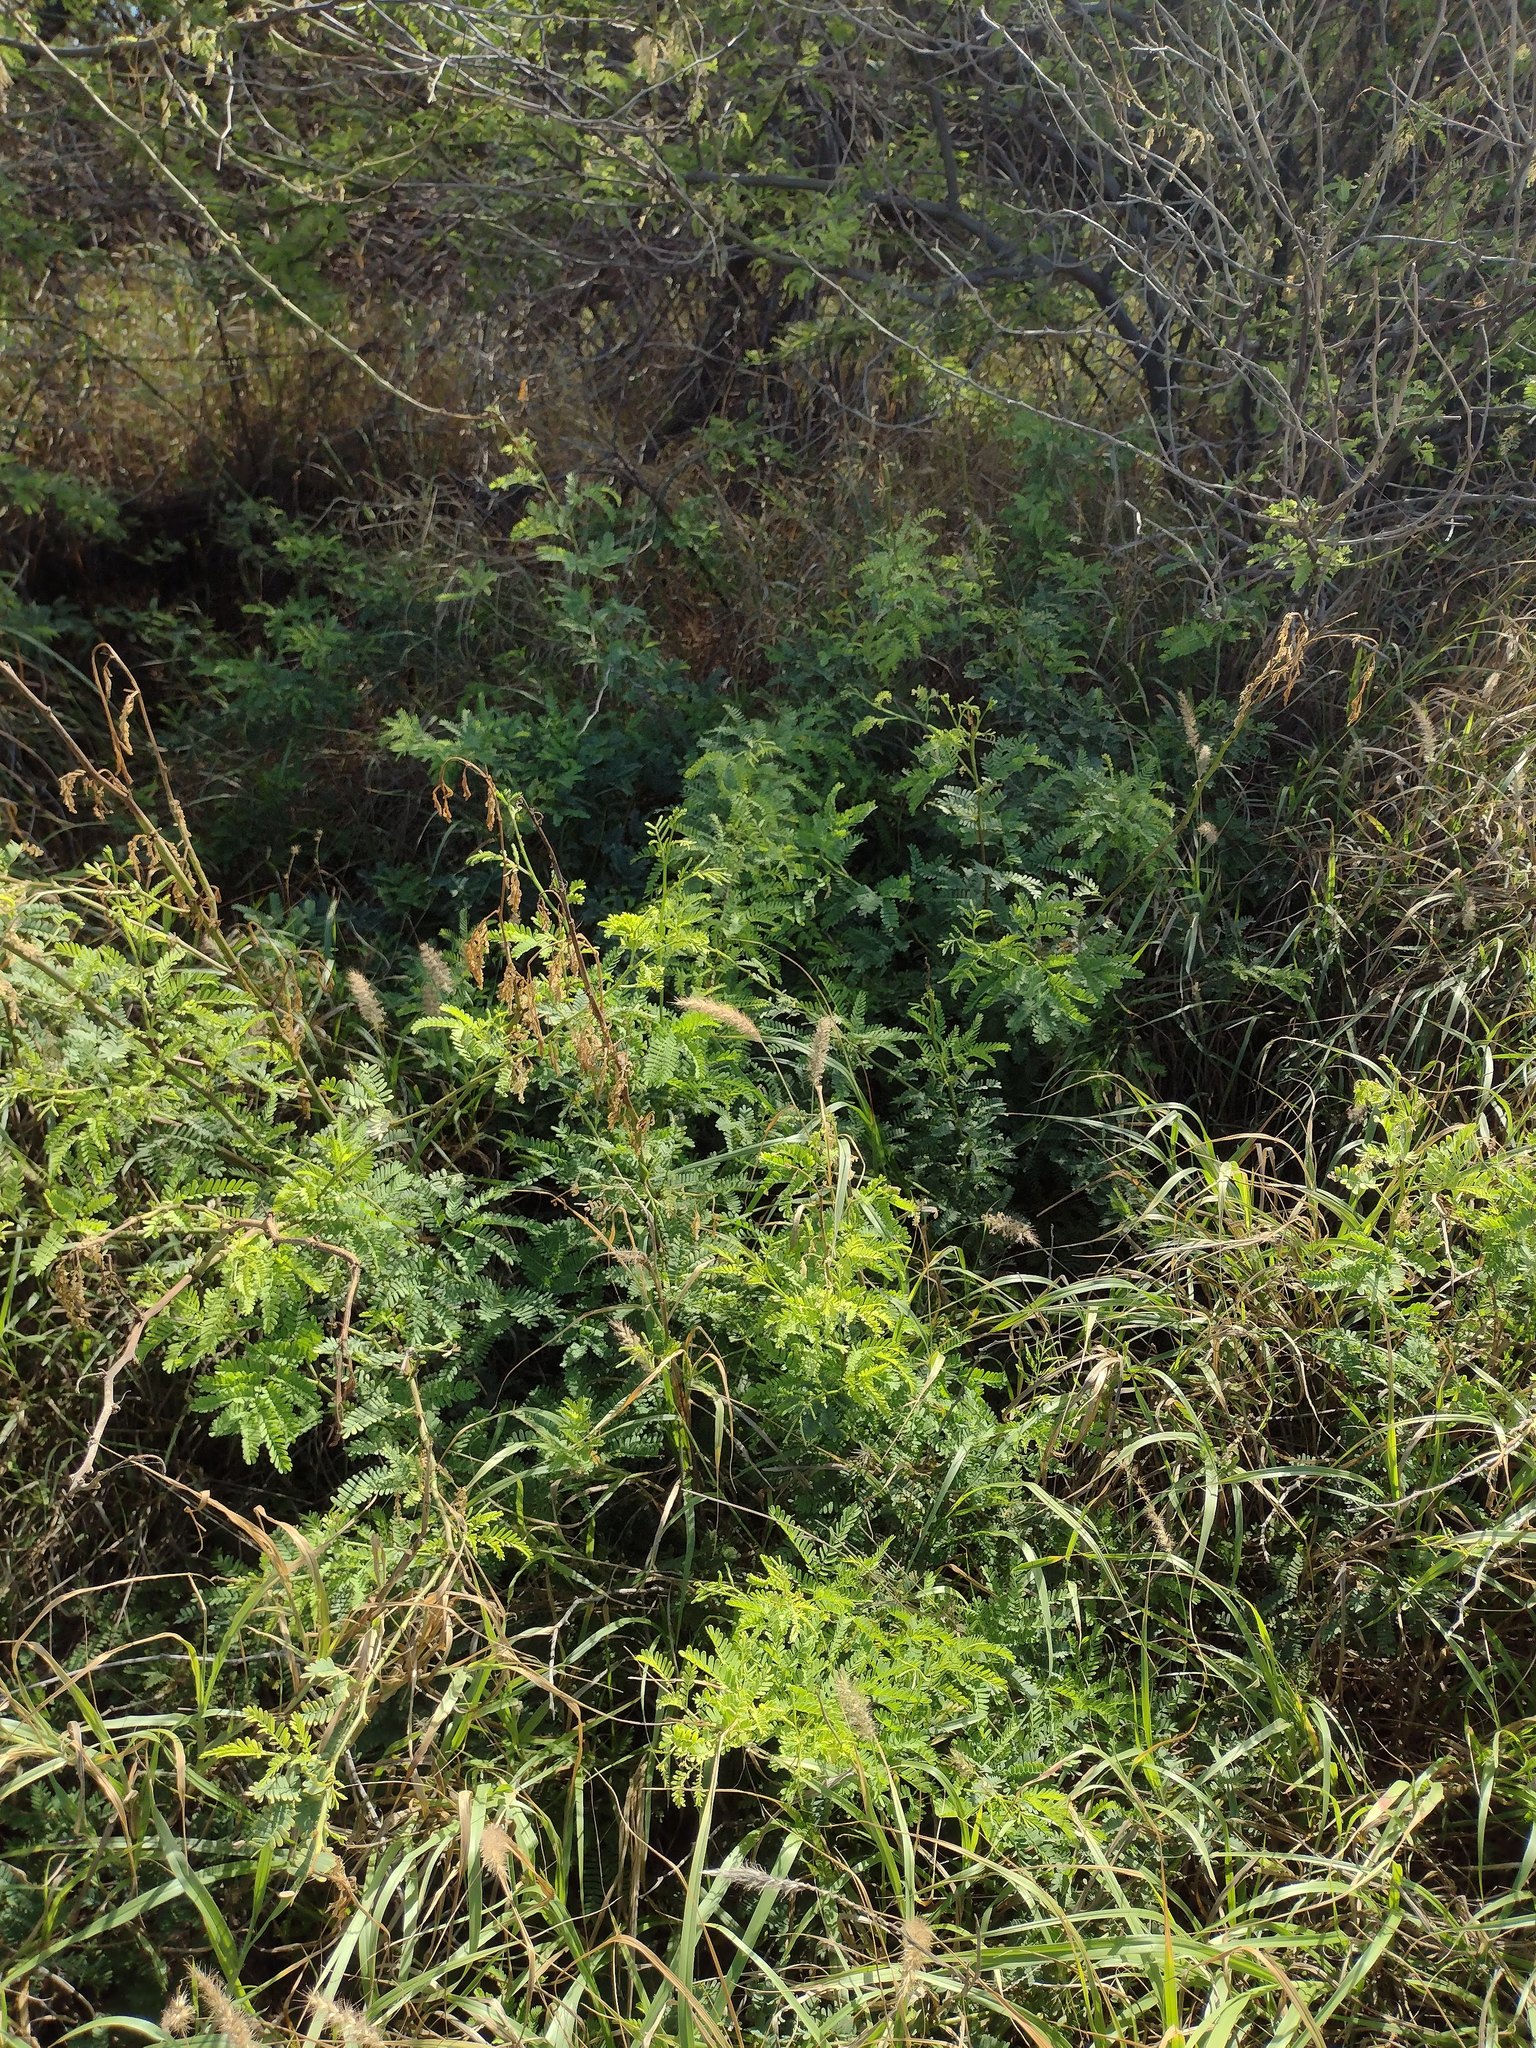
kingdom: Plantae
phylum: Tracheophyta
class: Magnoliopsida
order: Fabales
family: Fabaceae
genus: Prosopis
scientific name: Prosopis pallida
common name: Mesquite
